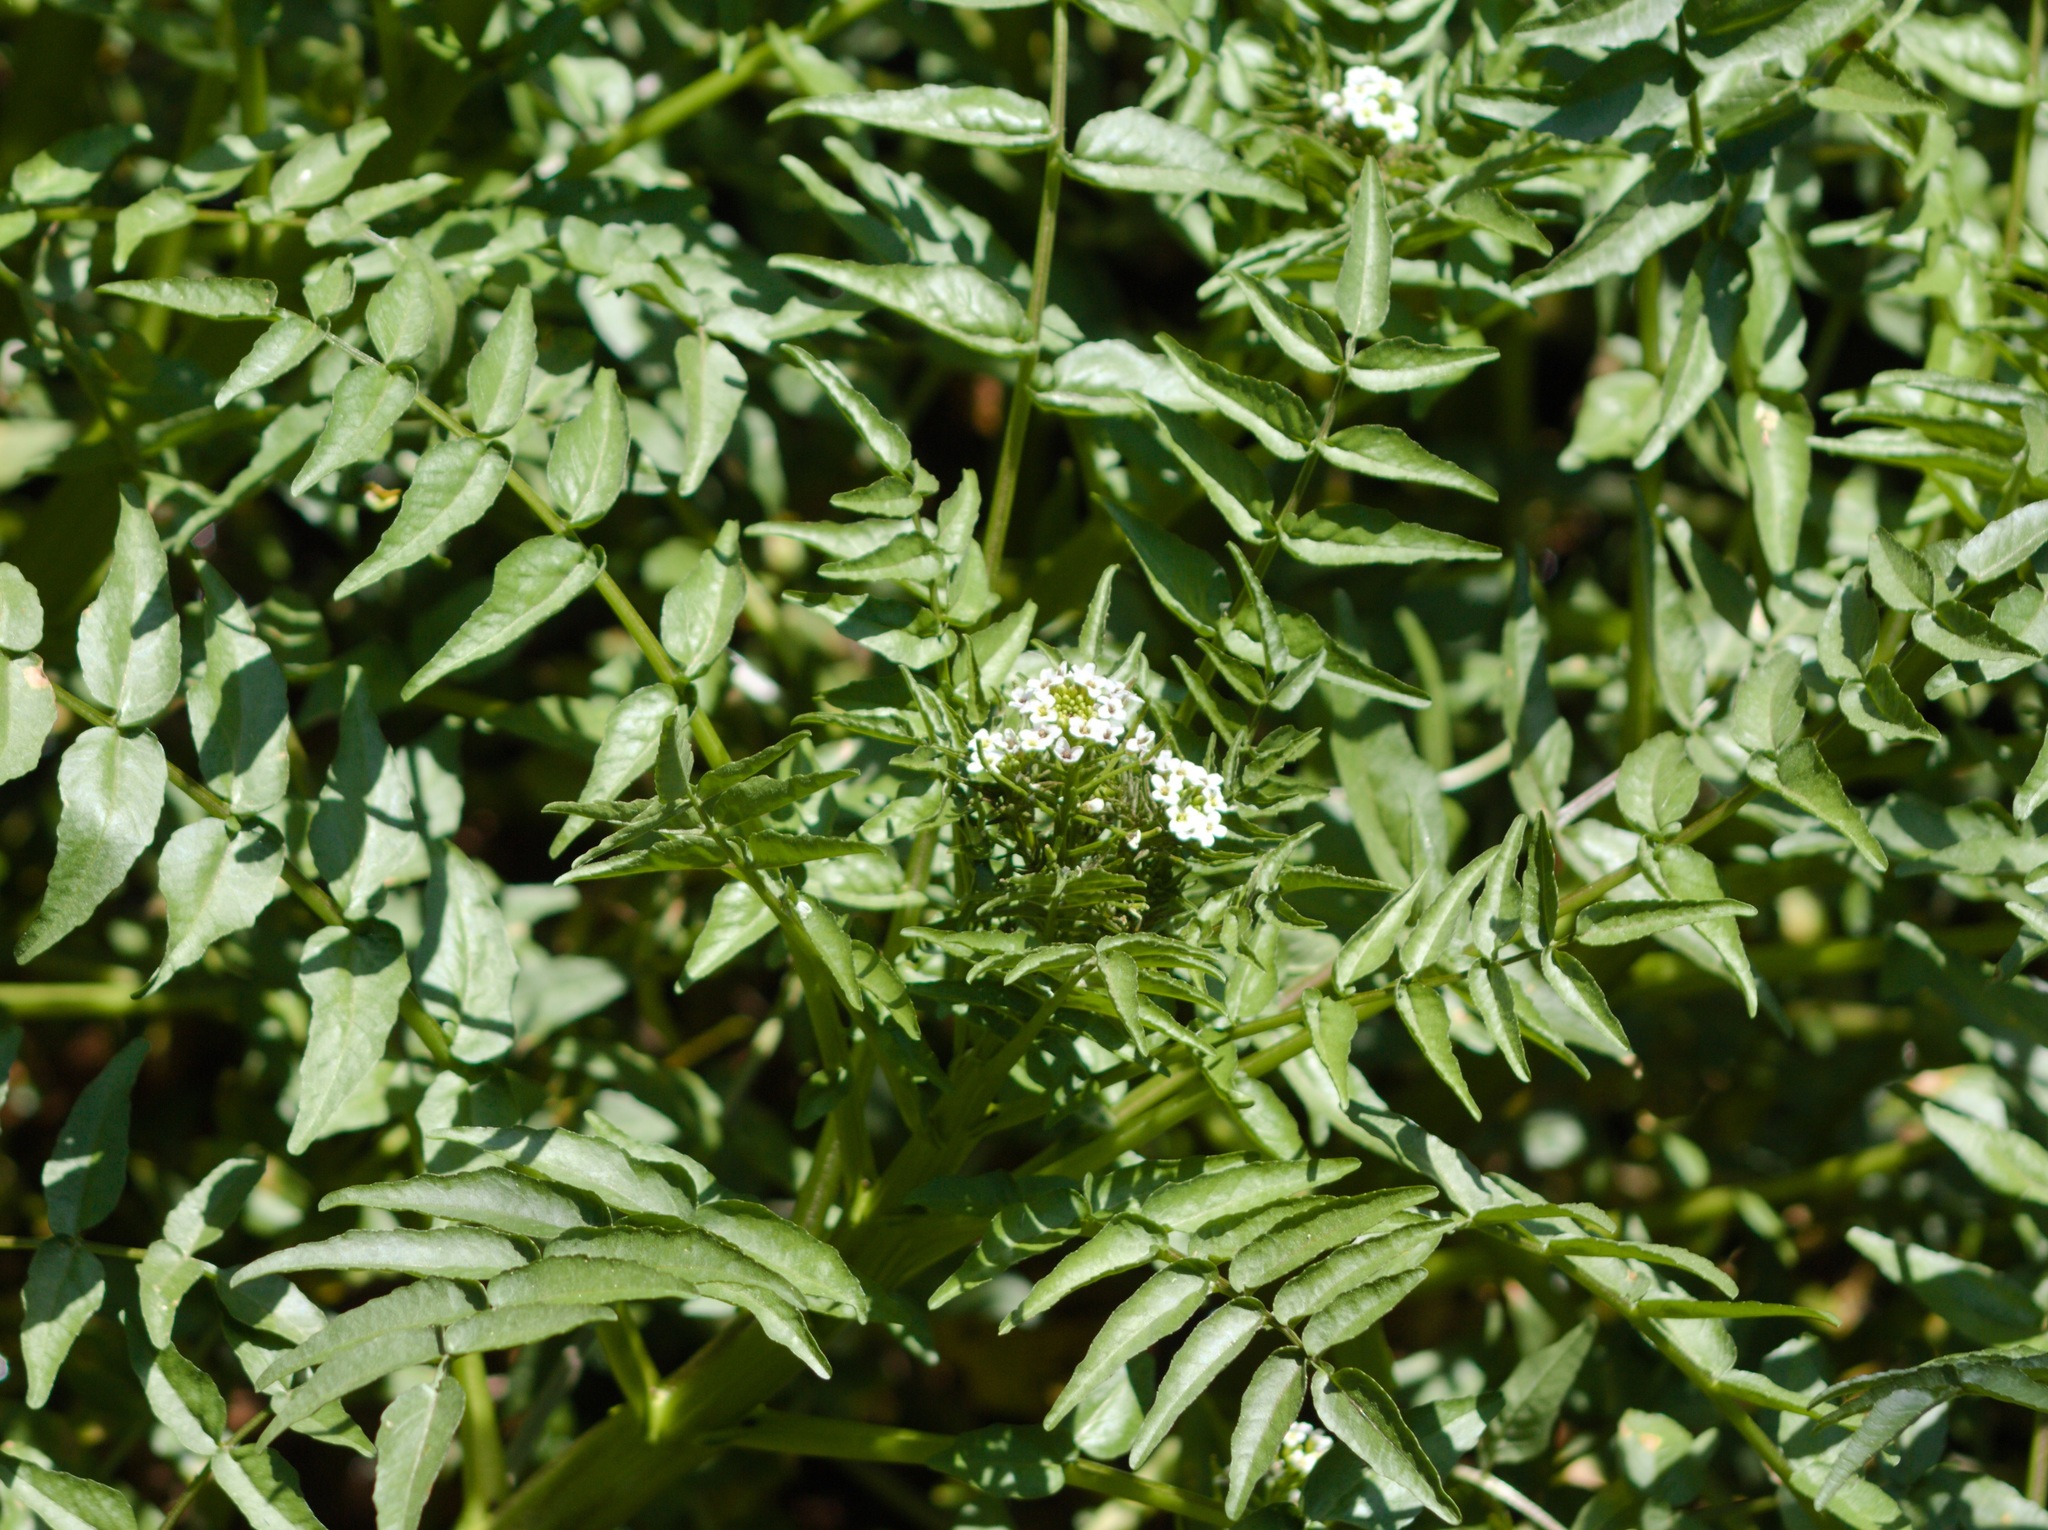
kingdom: Plantae
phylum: Tracheophyta
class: Magnoliopsida
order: Apiales
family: Apiaceae
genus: Berula
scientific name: Berula erecta
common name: Lesser water-parsnip
